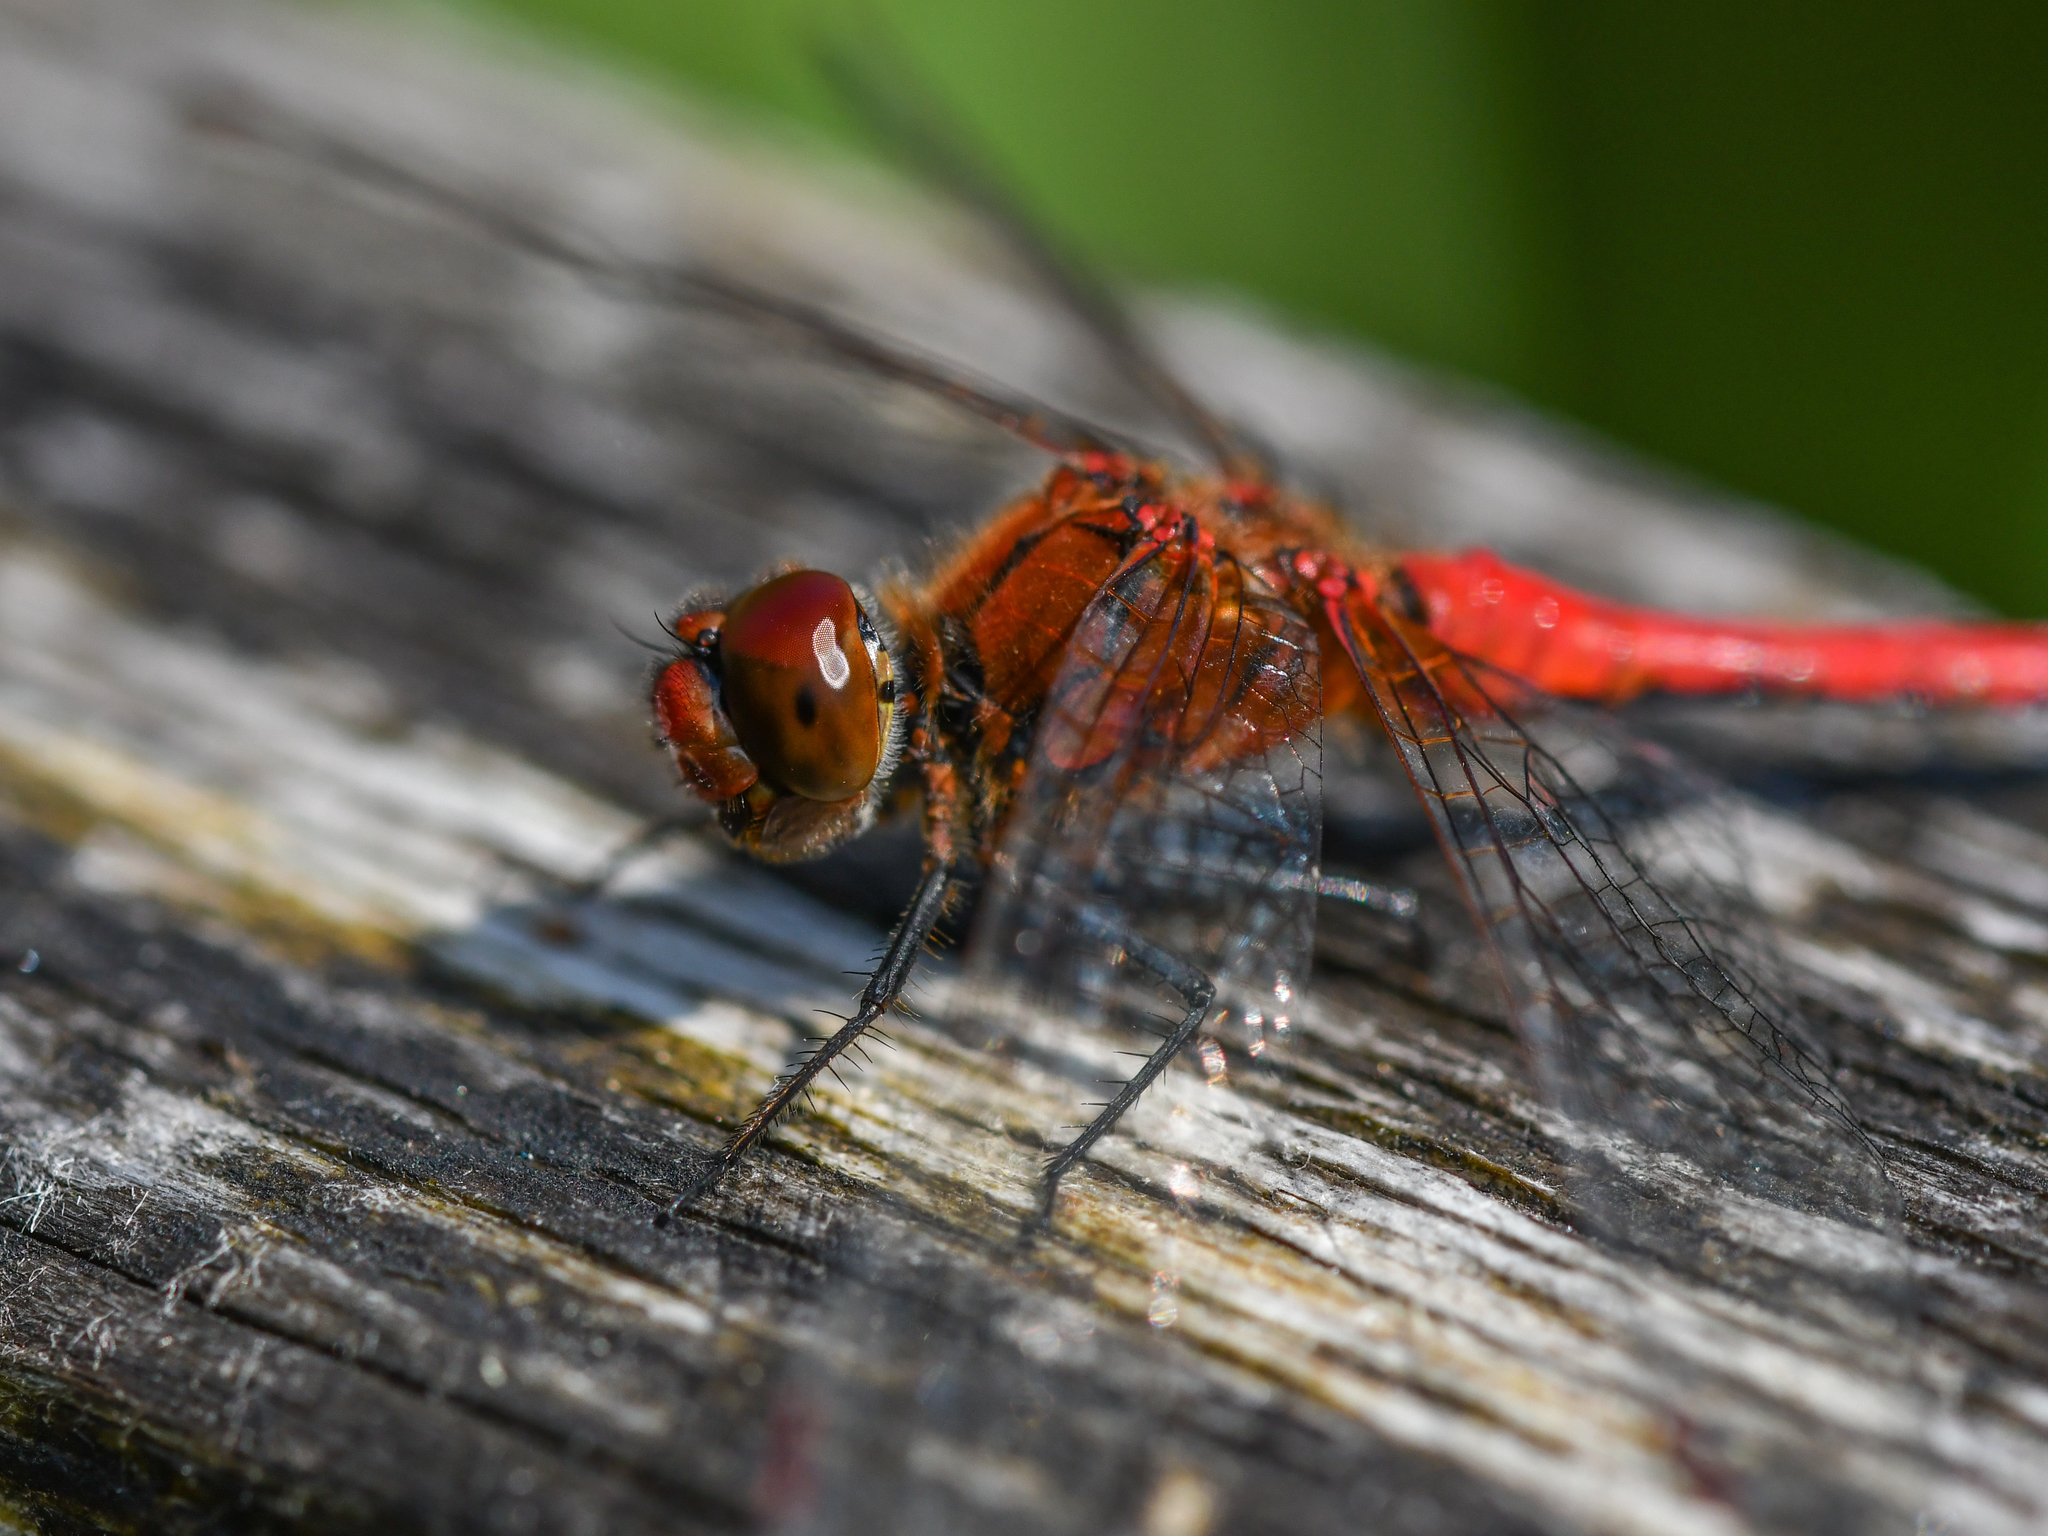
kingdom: Animalia
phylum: Arthropoda
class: Insecta
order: Odonata
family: Libellulidae
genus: Sympetrum
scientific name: Sympetrum sanguineum
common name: Ruddy darter
